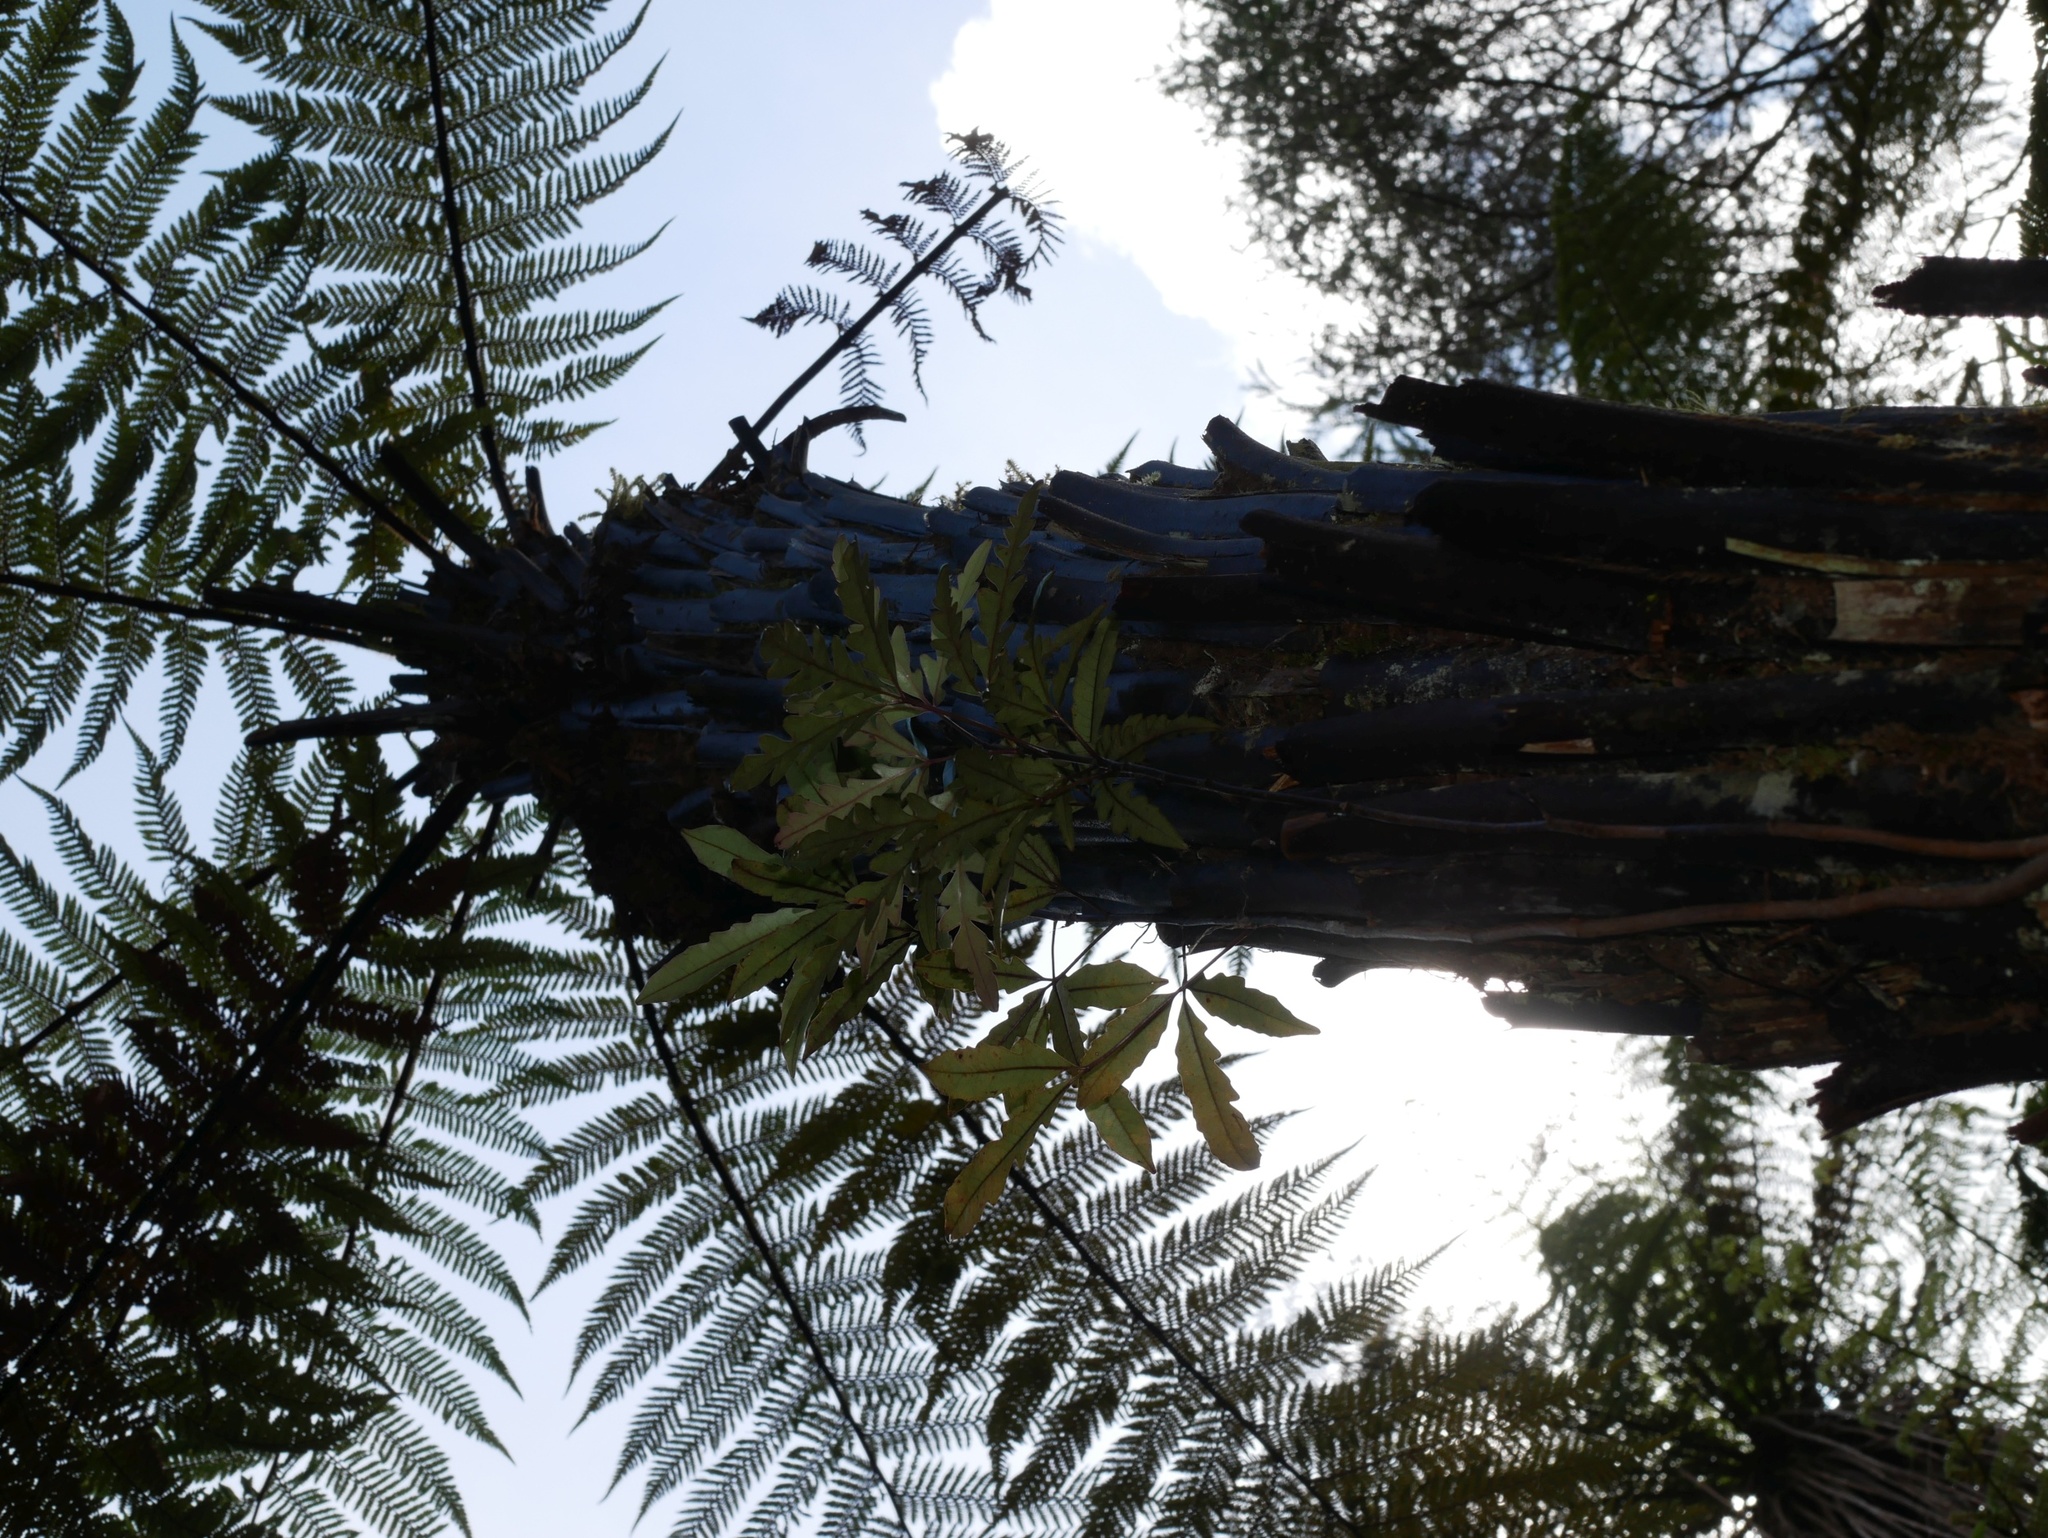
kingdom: Plantae
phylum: Tracheophyta
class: Magnoliopsida
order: Apiales
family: Araliaceae
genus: Raukaua
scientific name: Raukaua edgerleyi
